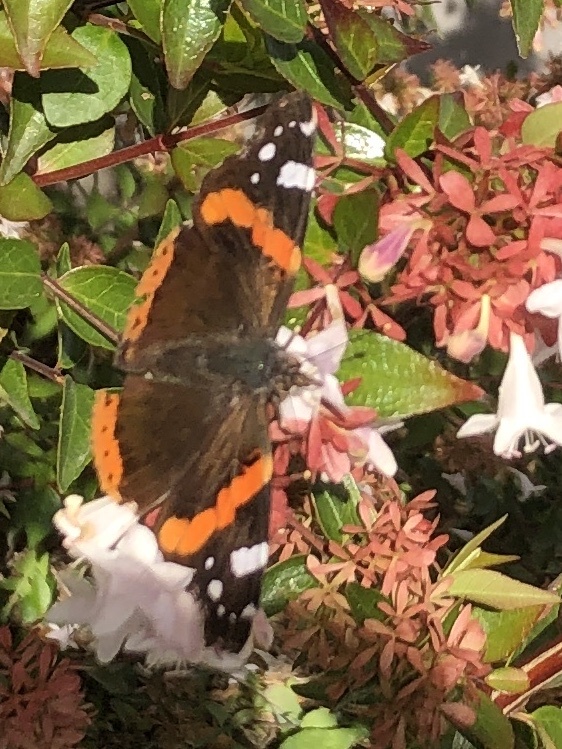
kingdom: Animalia
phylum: Arthropoda
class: Insecta
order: Lepidoptera
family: Nymphalidae
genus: Vanessa
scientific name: Vanessa atalanta
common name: Red admiral
